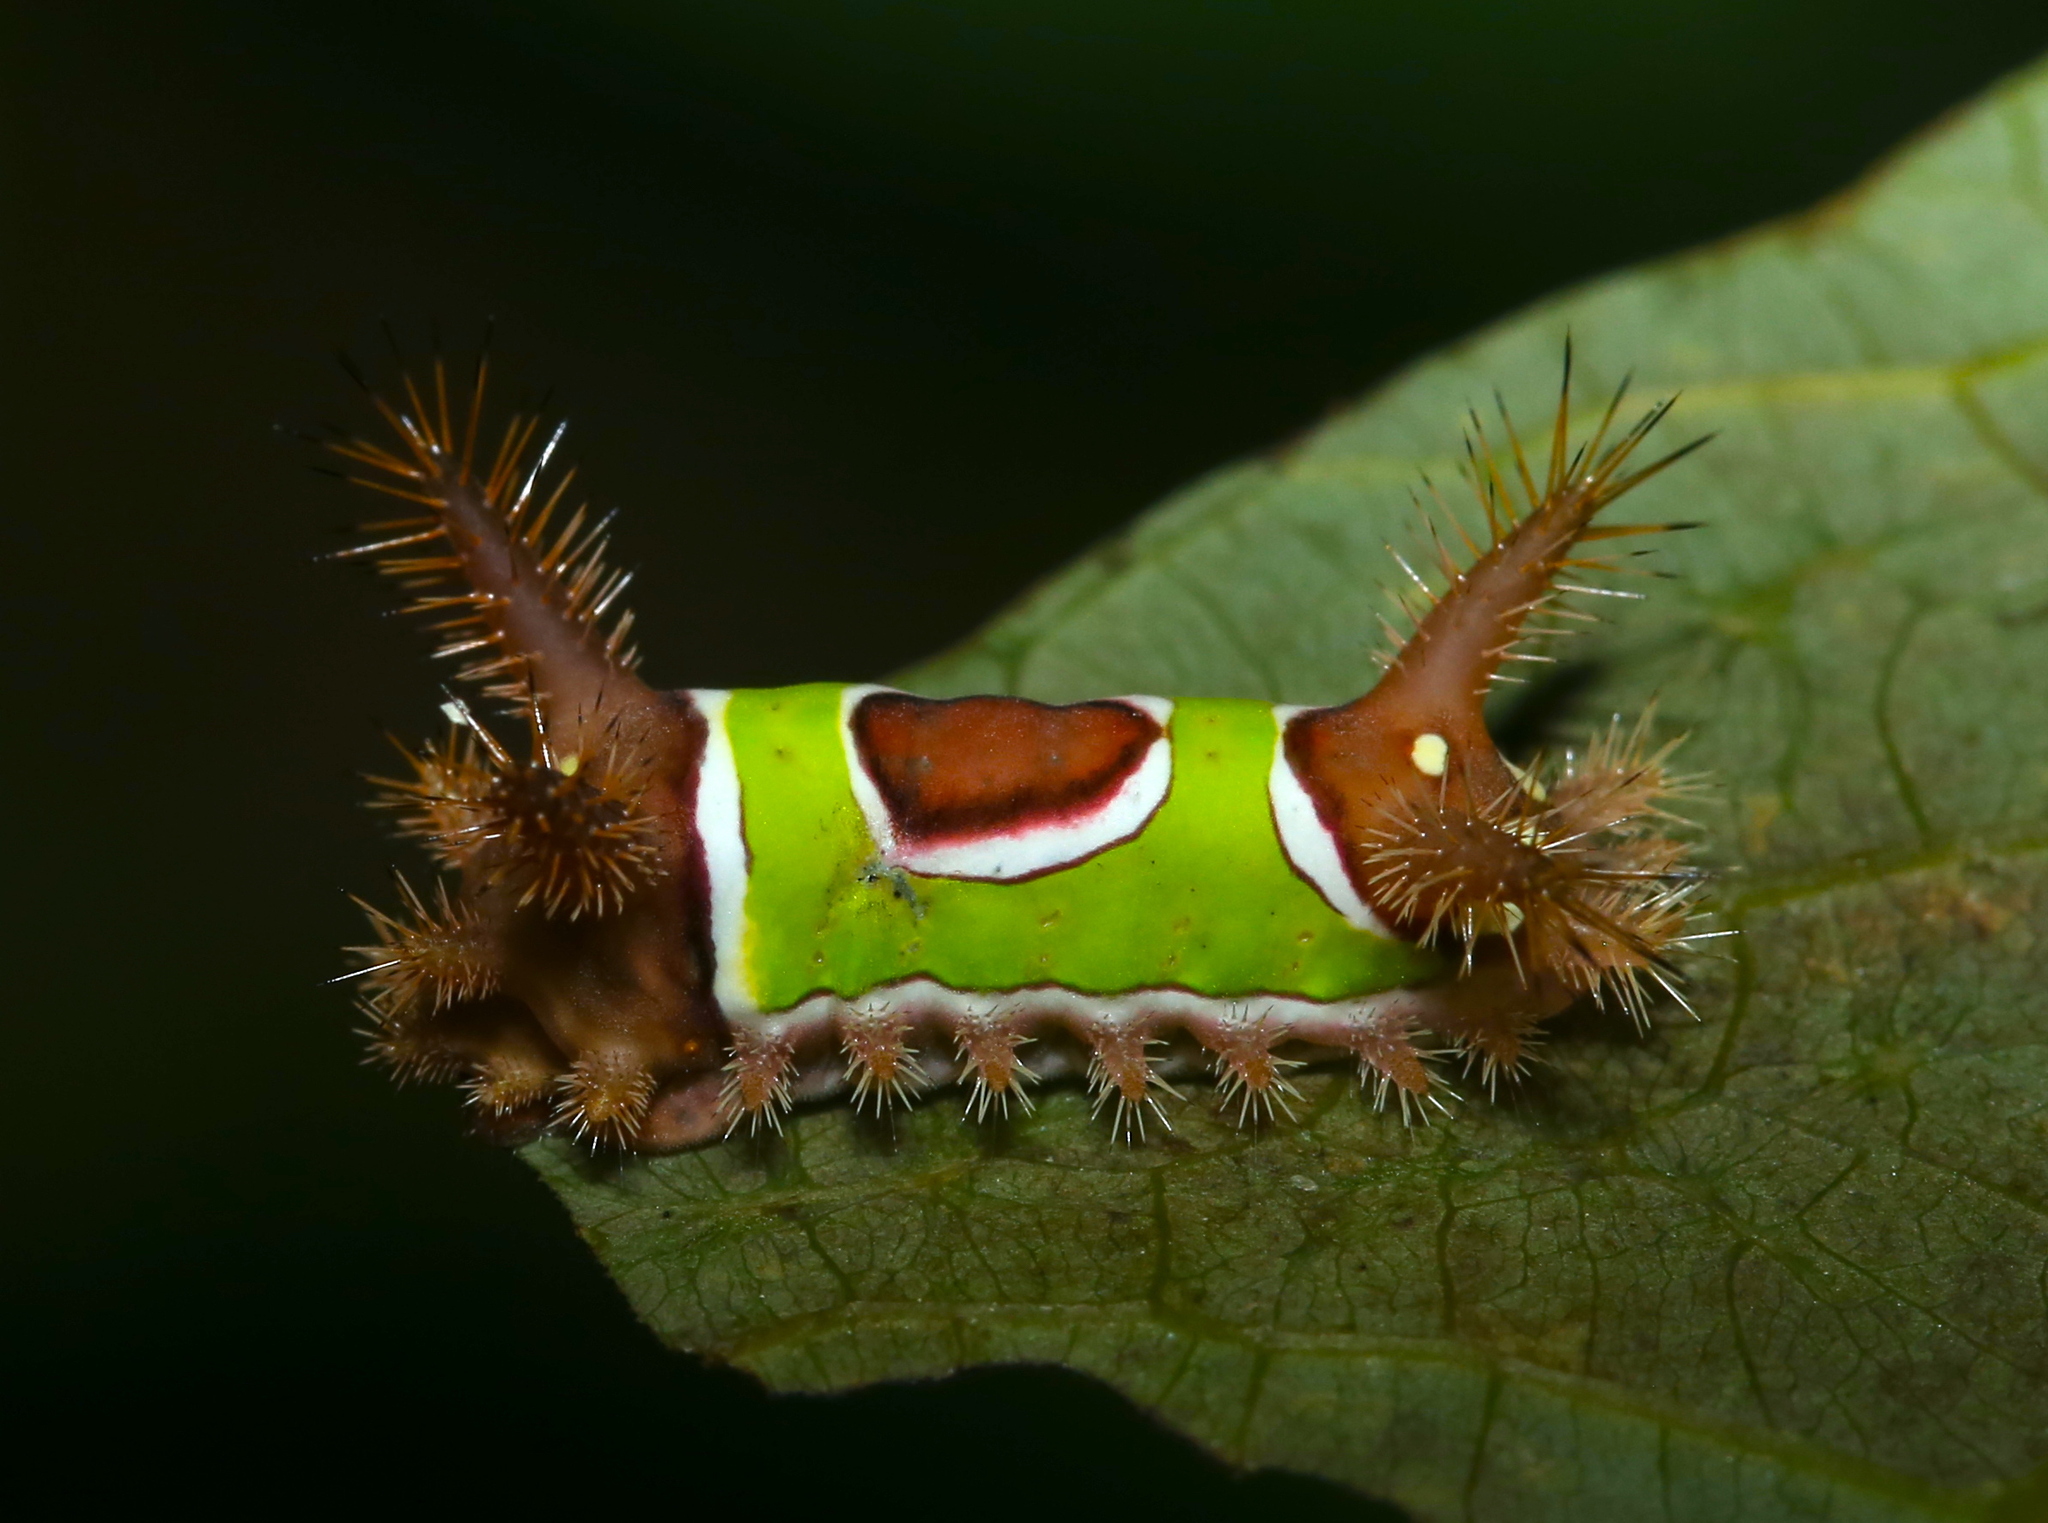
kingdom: Animalia
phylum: Arthropoda
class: Insecta
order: Lepidoptera
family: Limacodidae
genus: Acharia
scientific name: Acharia stimulea
